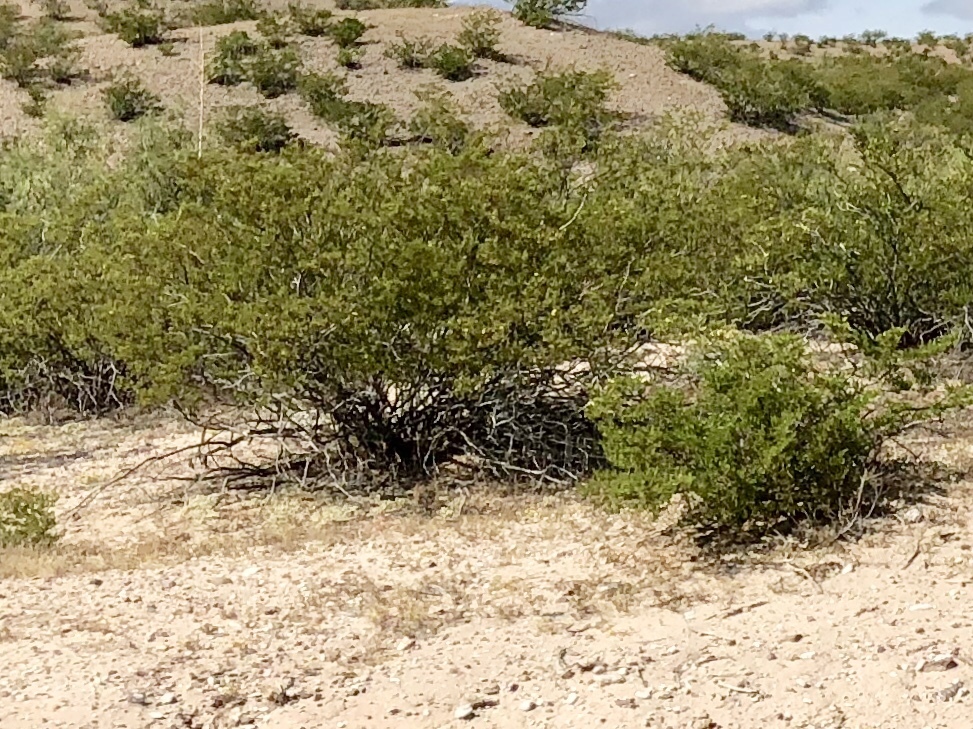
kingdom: Plantae
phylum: Tracheophyta
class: Magnoliopsida
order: Zygophyllales
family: Zygophyllaceae
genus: Larrea
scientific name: Larrea tridentata
